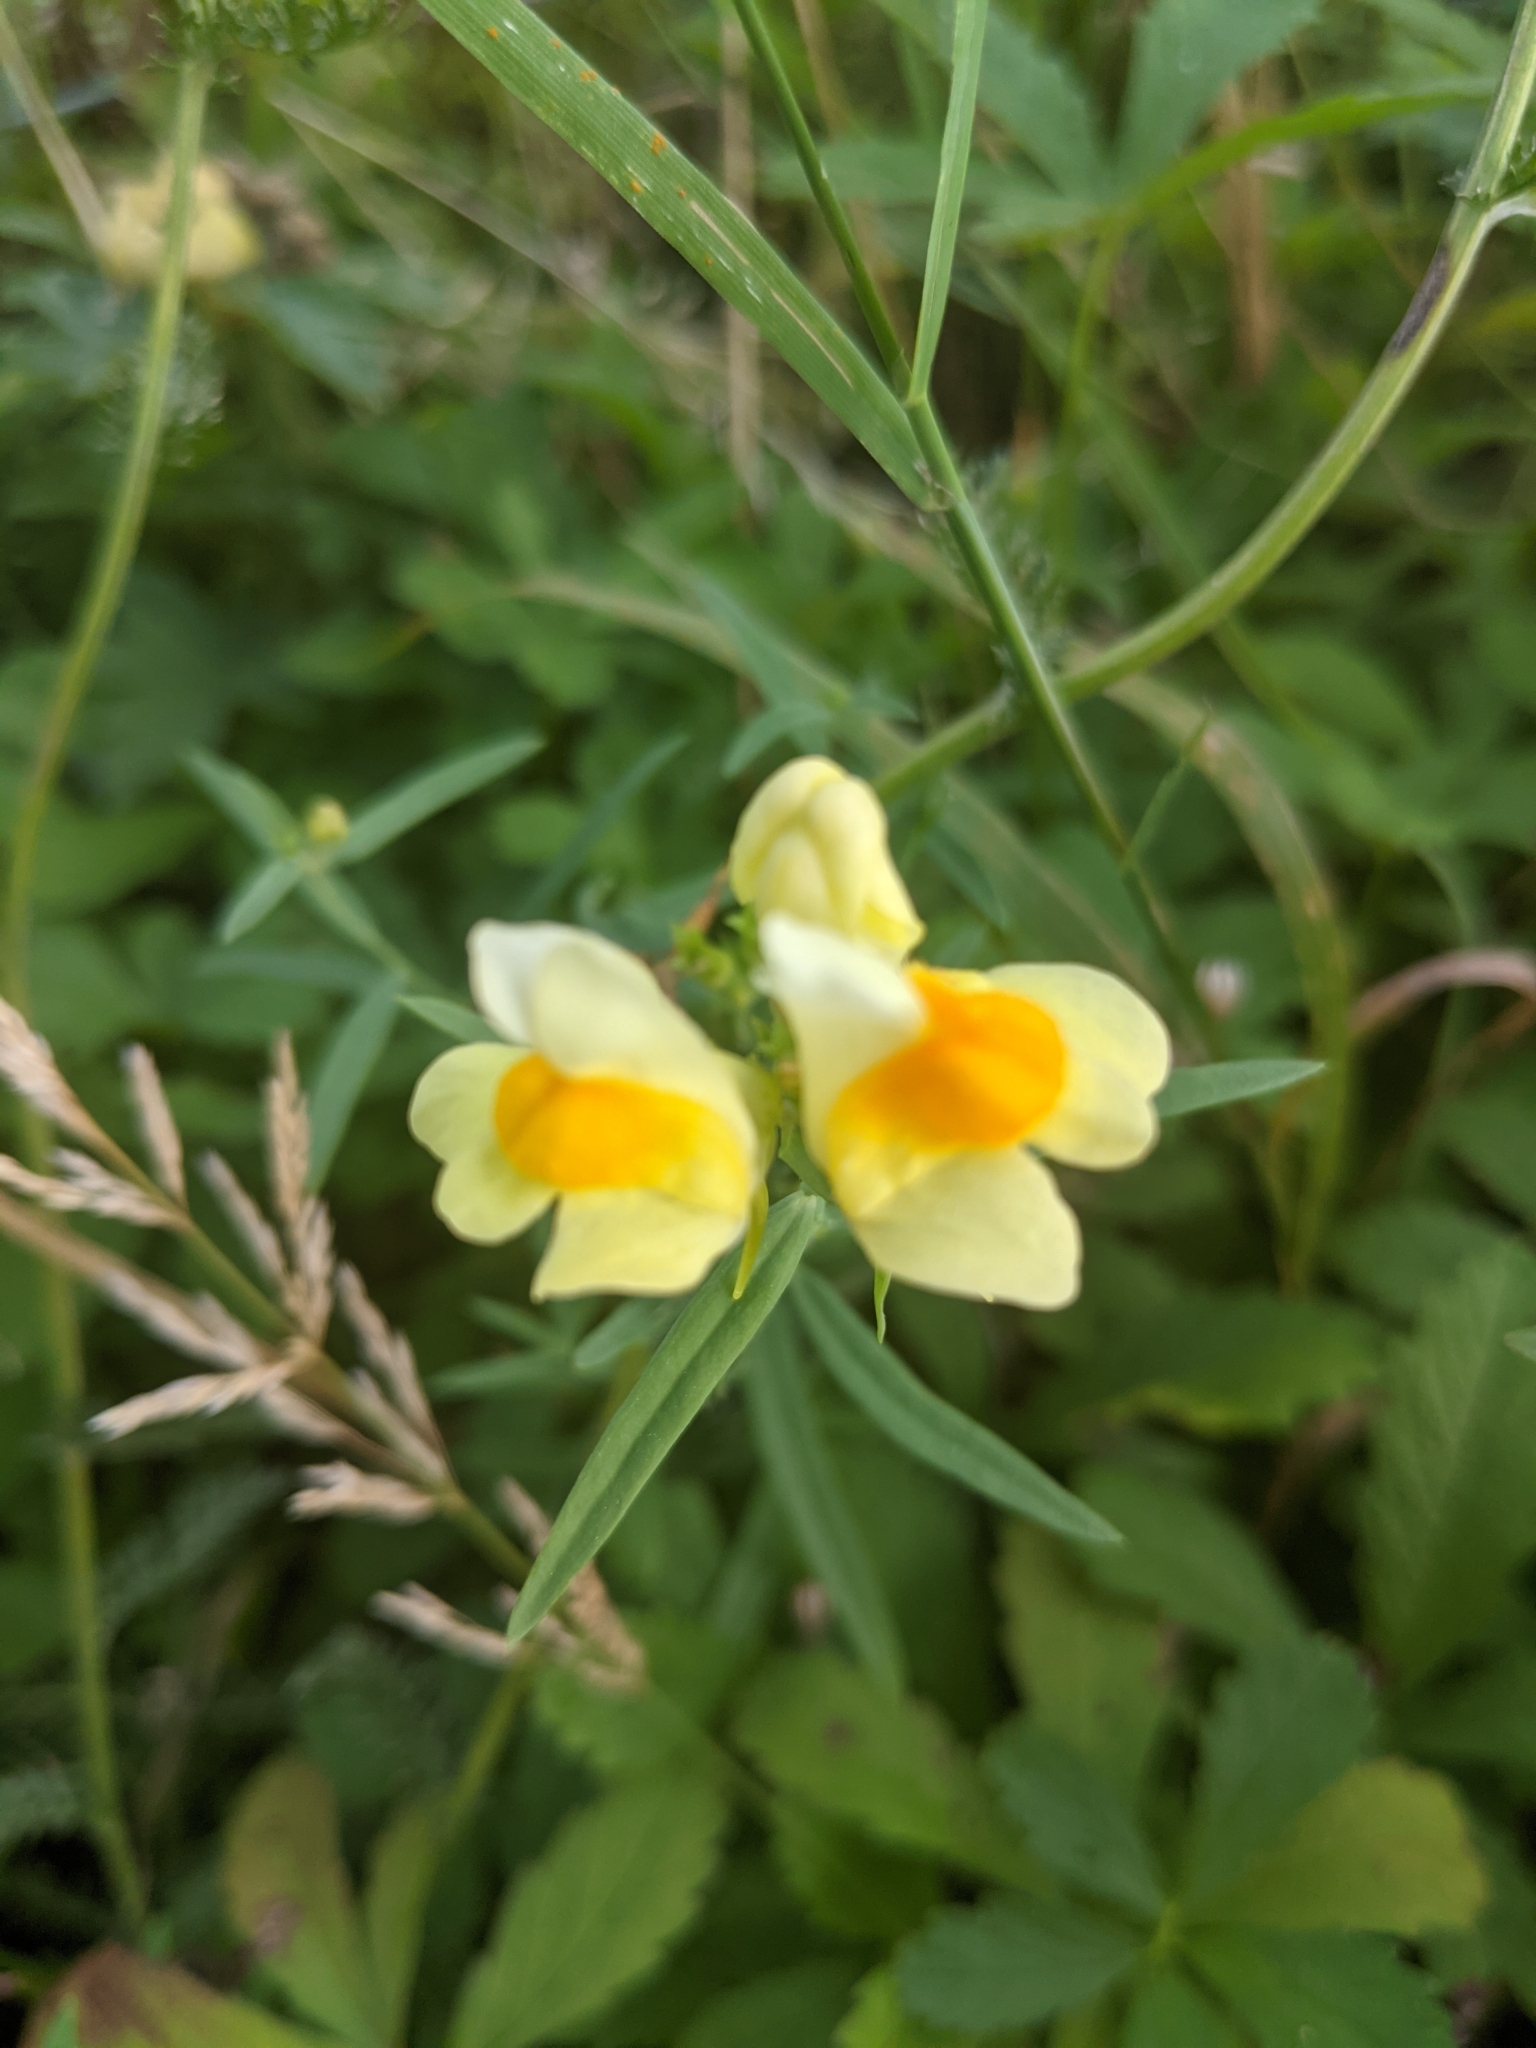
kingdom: Plantae
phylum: Tracheophyta
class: Magnoliopsida
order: Lamiales
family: Plantaginaceae
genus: Linaria
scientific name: Linaria vulgaris
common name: Butter and eggs
